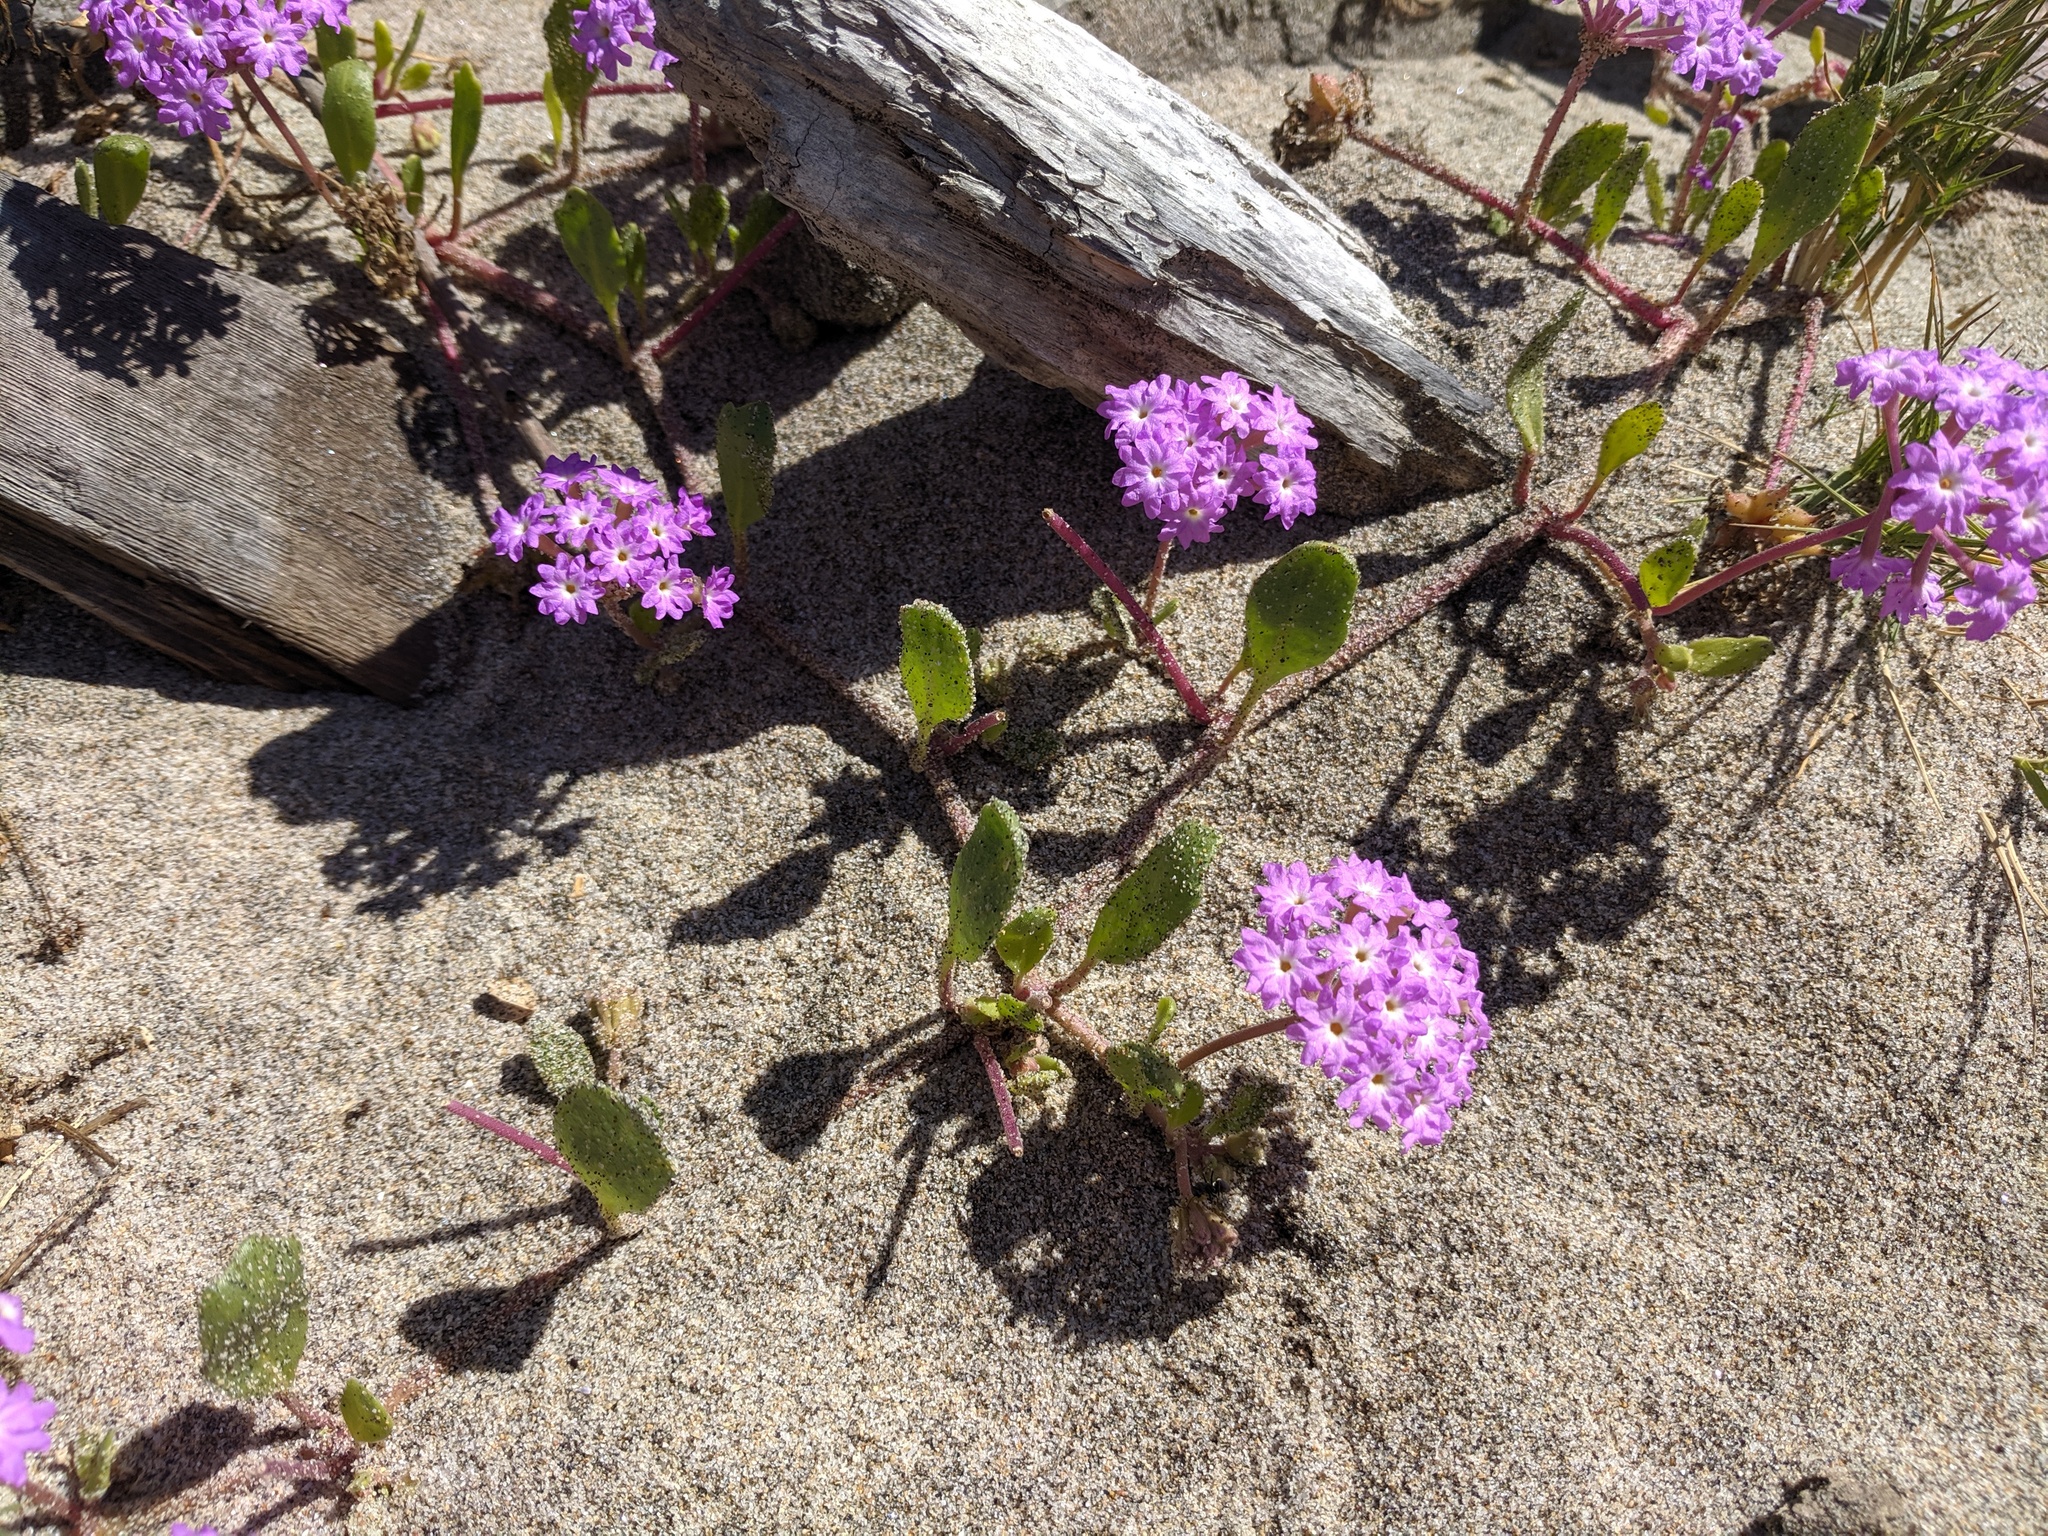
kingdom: Plantae
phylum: Tracheophyta
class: Magnoliopsida
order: Caryophyllales
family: Nyctaginaceae
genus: Abronia
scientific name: Abronia umbellata
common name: Sand-verbena
